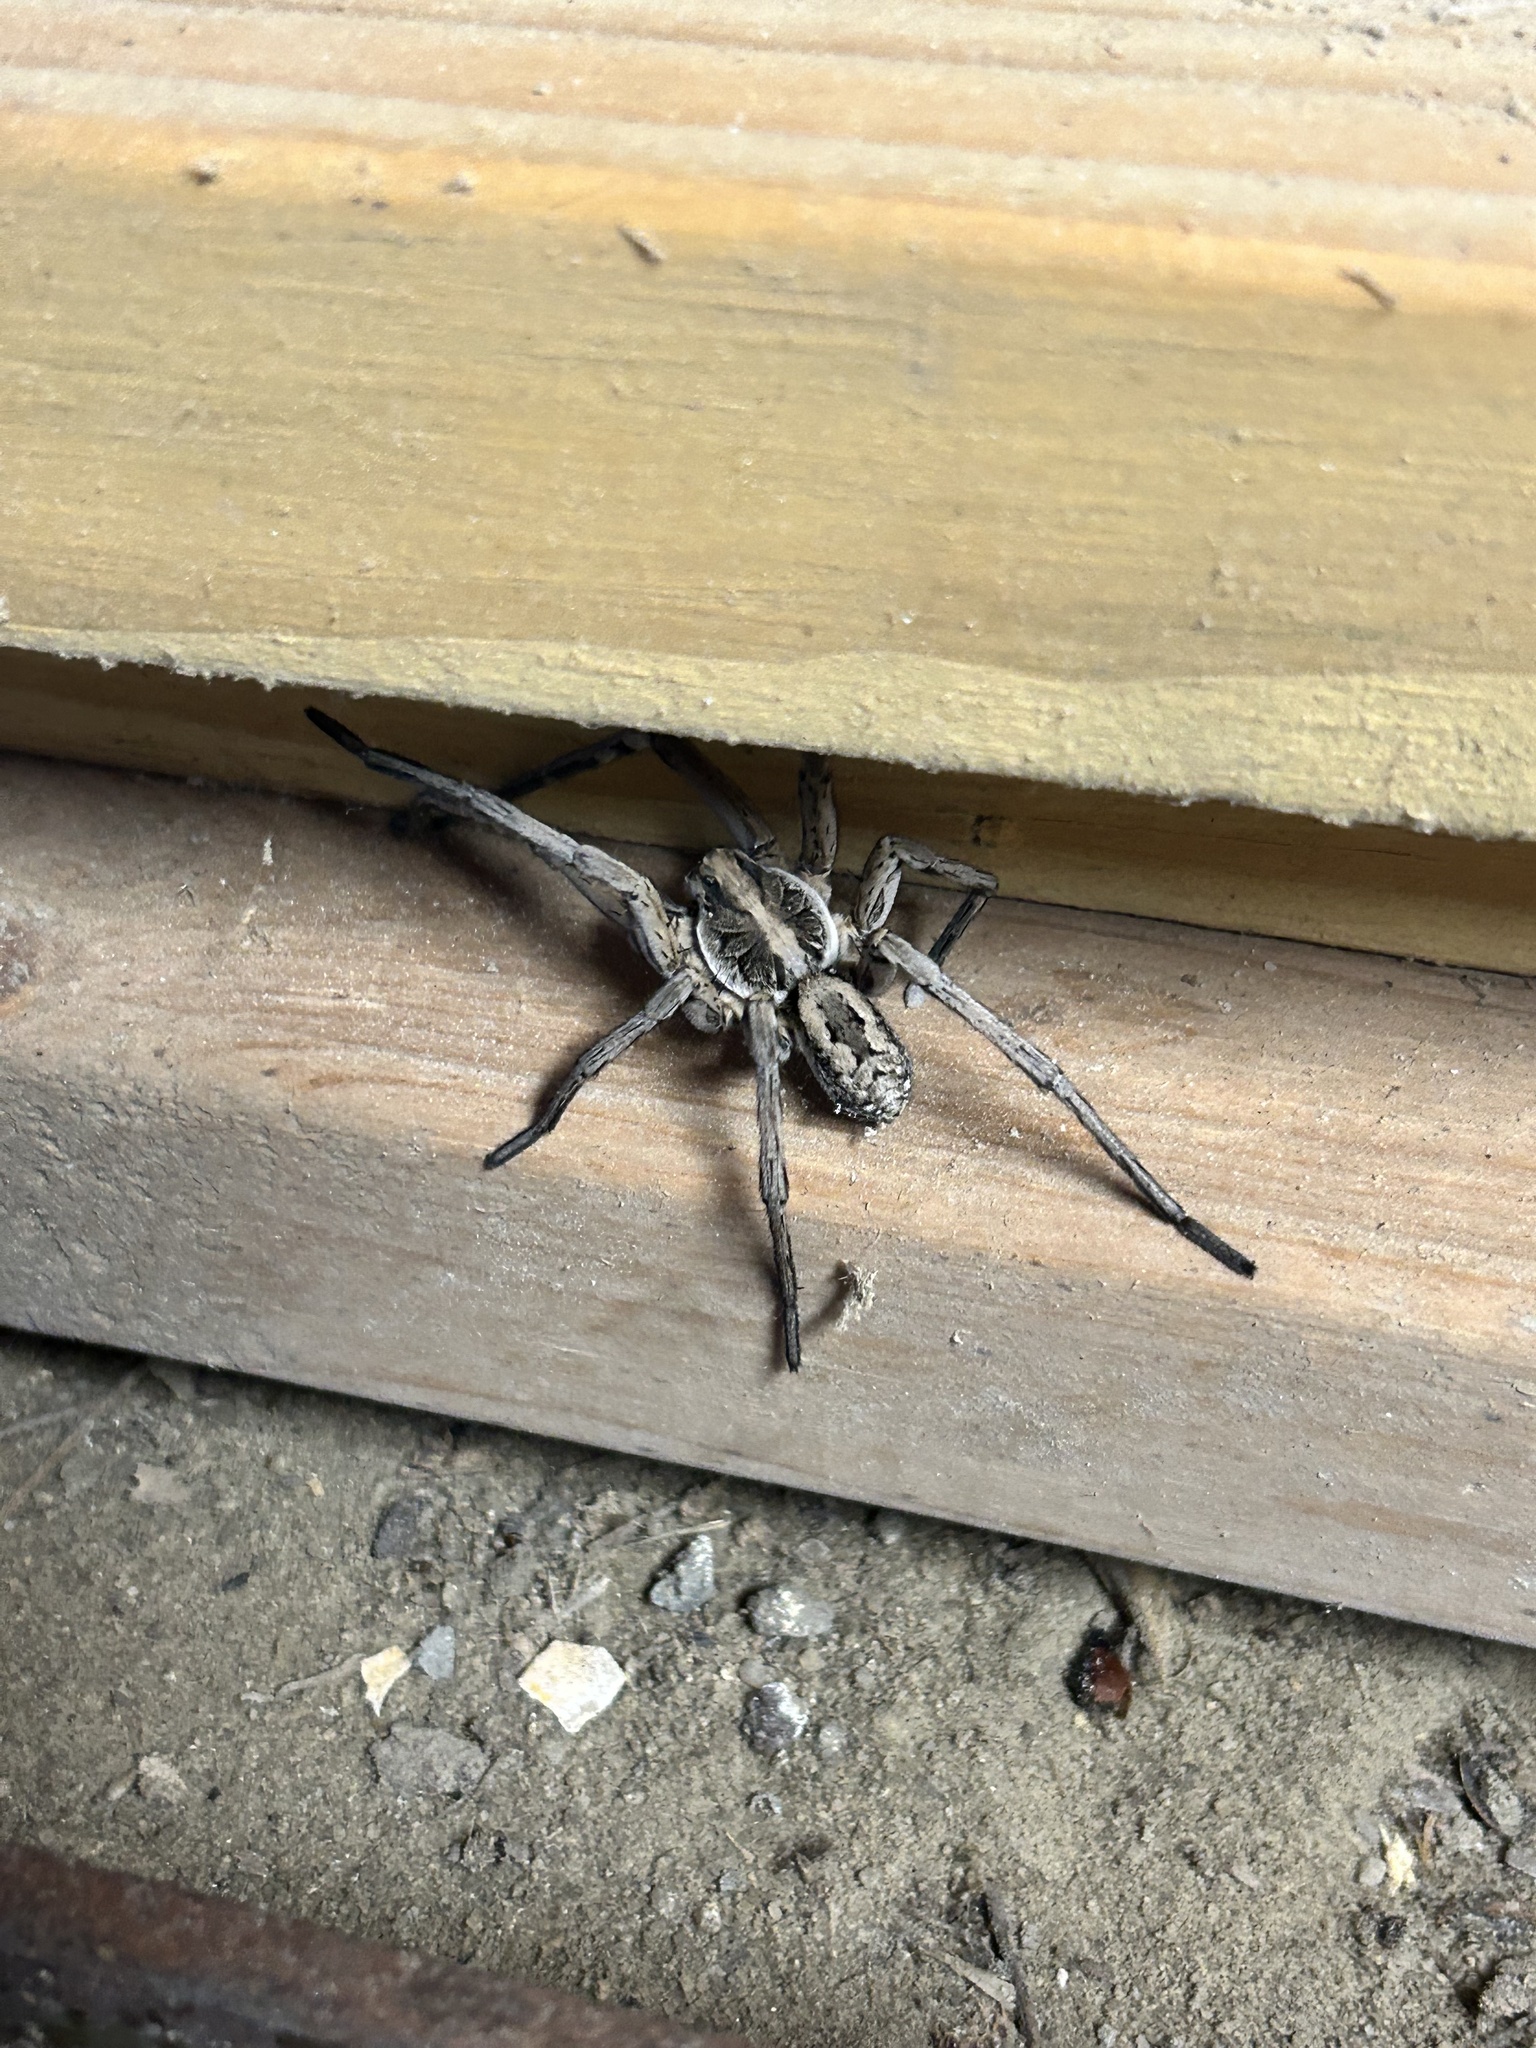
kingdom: Animalia
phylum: Arthropoda
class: Arachnida
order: Araneae
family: Lycosidae
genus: Hogna
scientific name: Hogna carolinensis
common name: Carolina wolf spider
